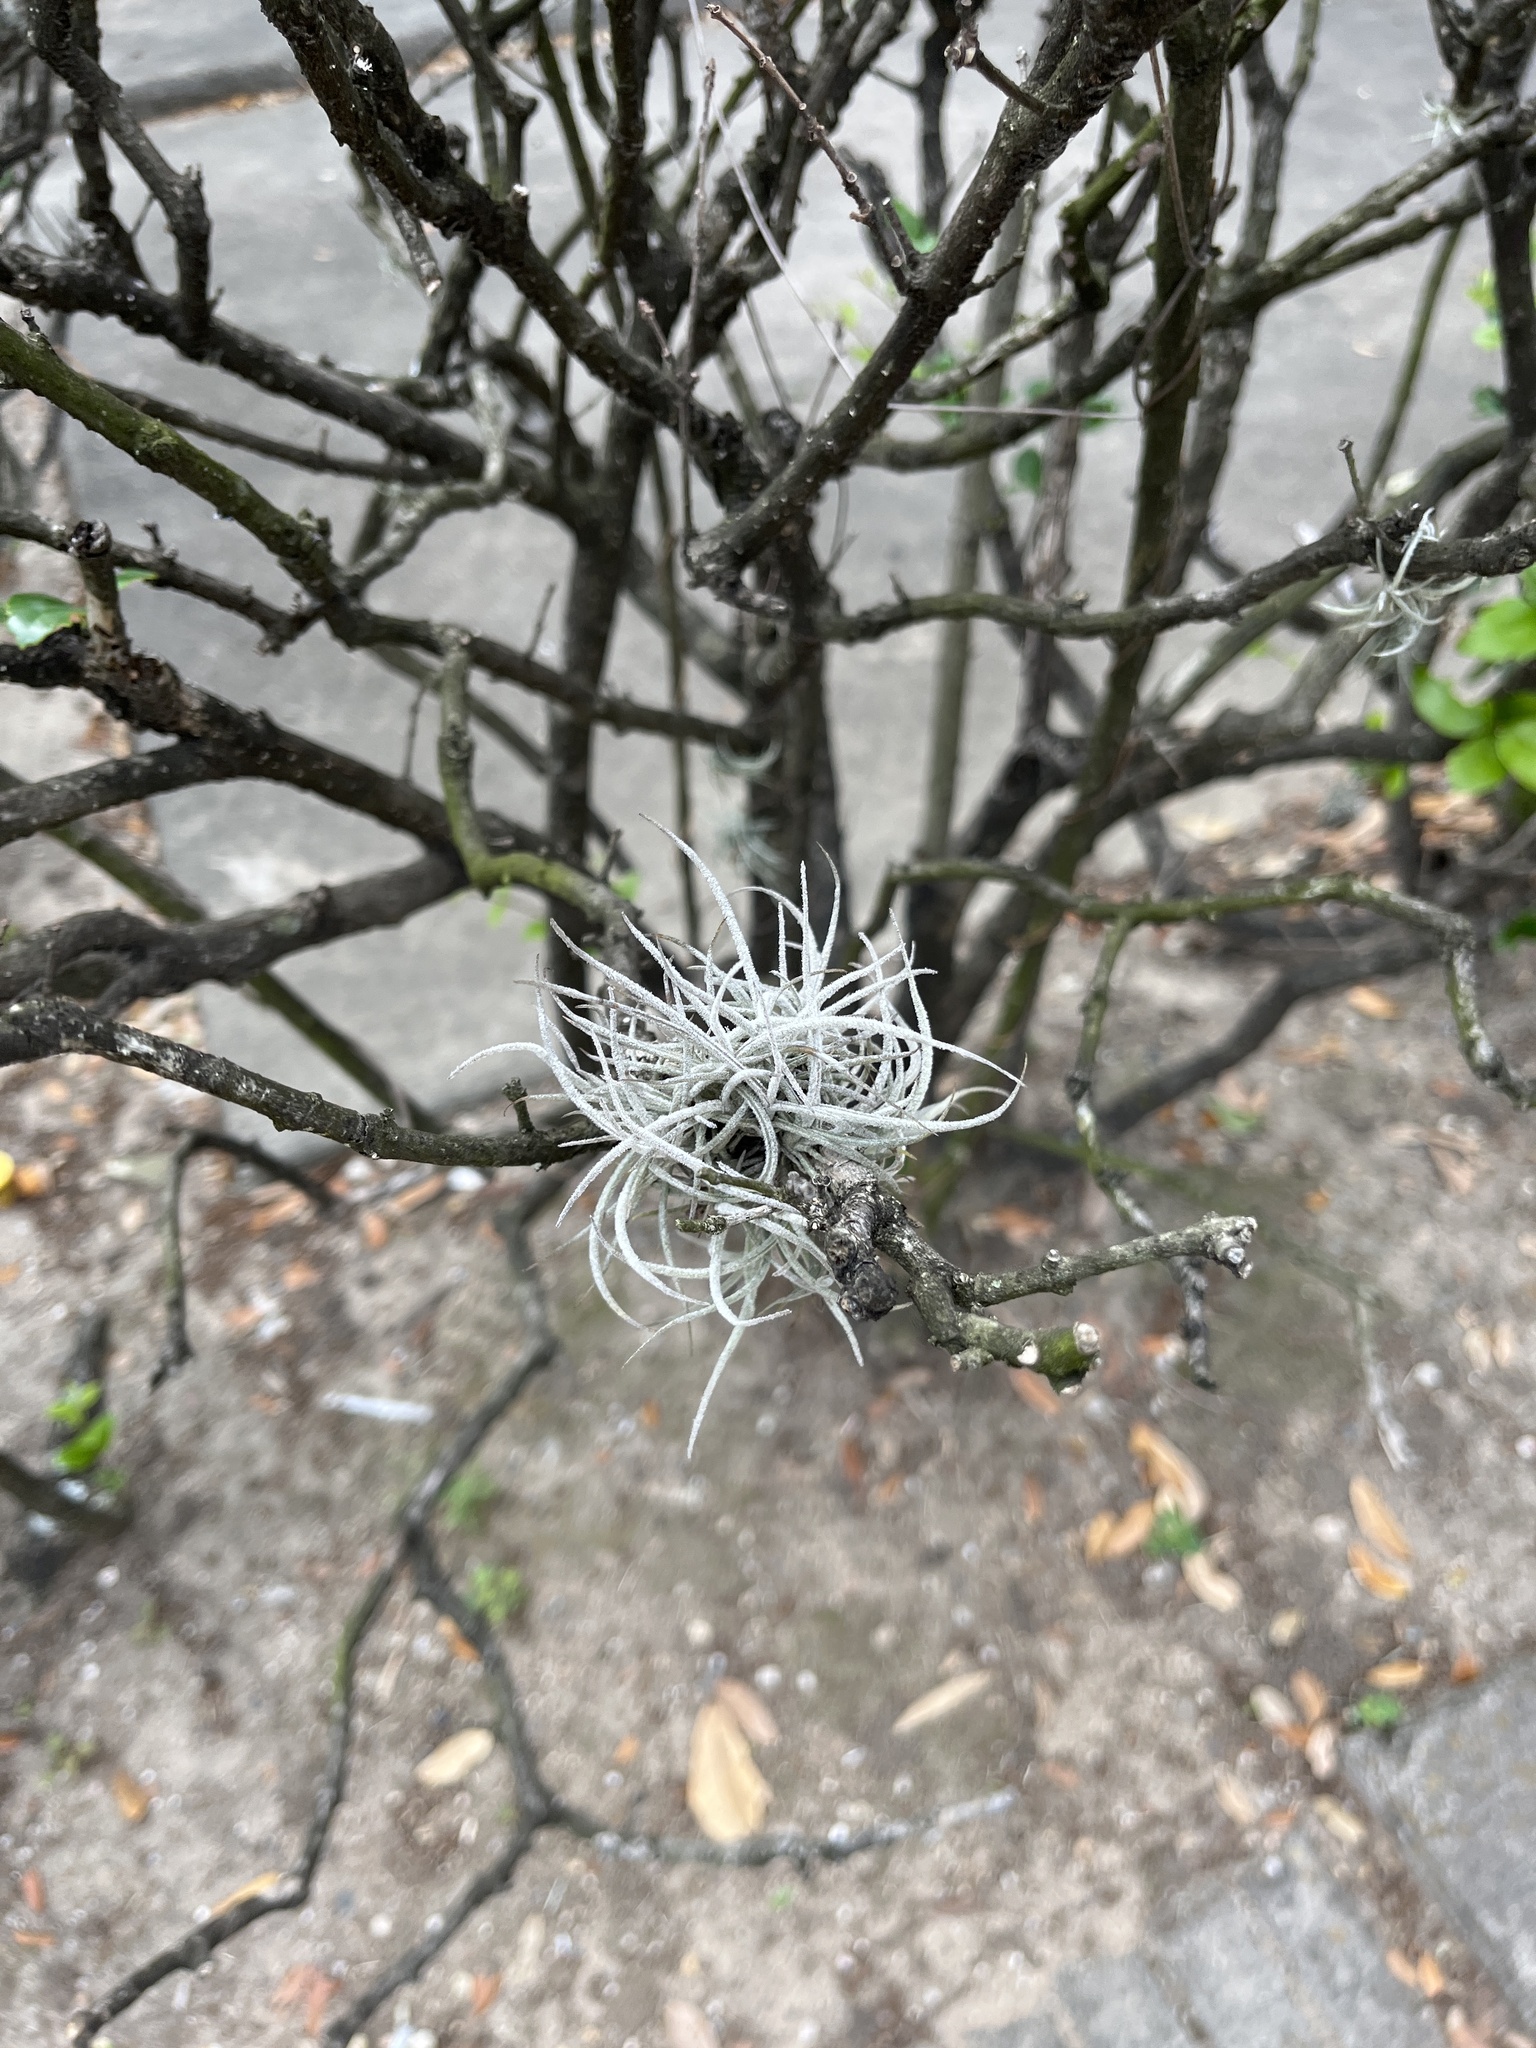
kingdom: Plantae
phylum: Tracheophyta
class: Liliopsida
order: Poales
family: Bromeliaceae
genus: Tillandsia
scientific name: Tillandsia recurvata
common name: Small ballmoss
